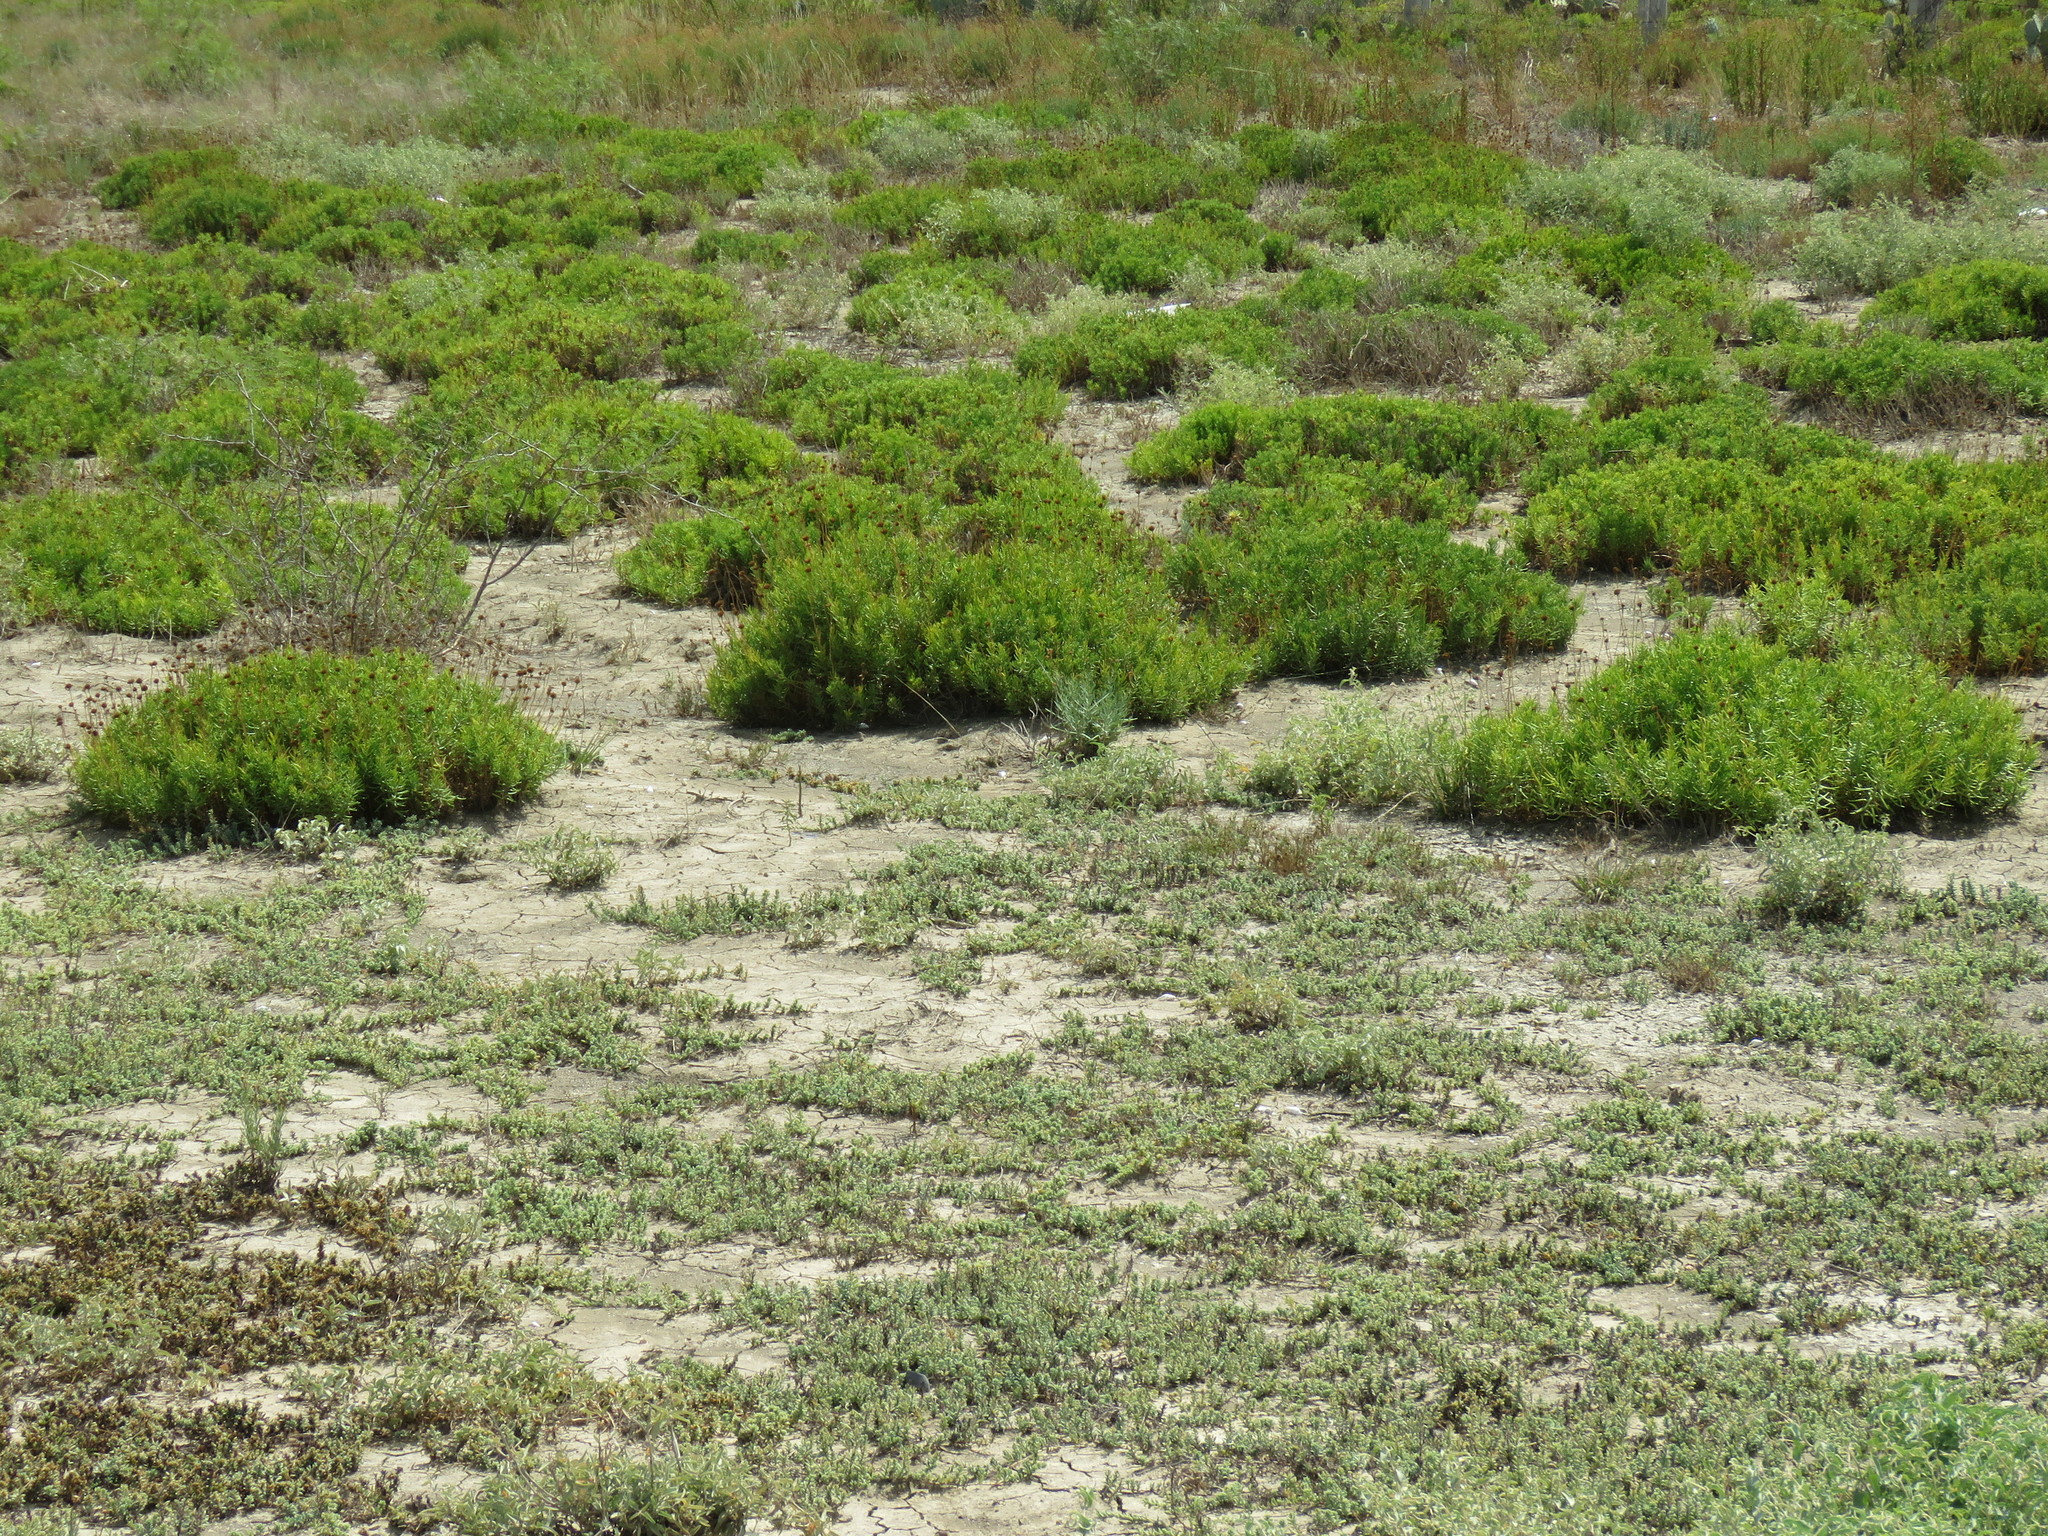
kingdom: Plantae
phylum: Tracheophyta
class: Magnoliopsida
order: Asterales
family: Asteraceae
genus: Varilla
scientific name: Varilla texana
